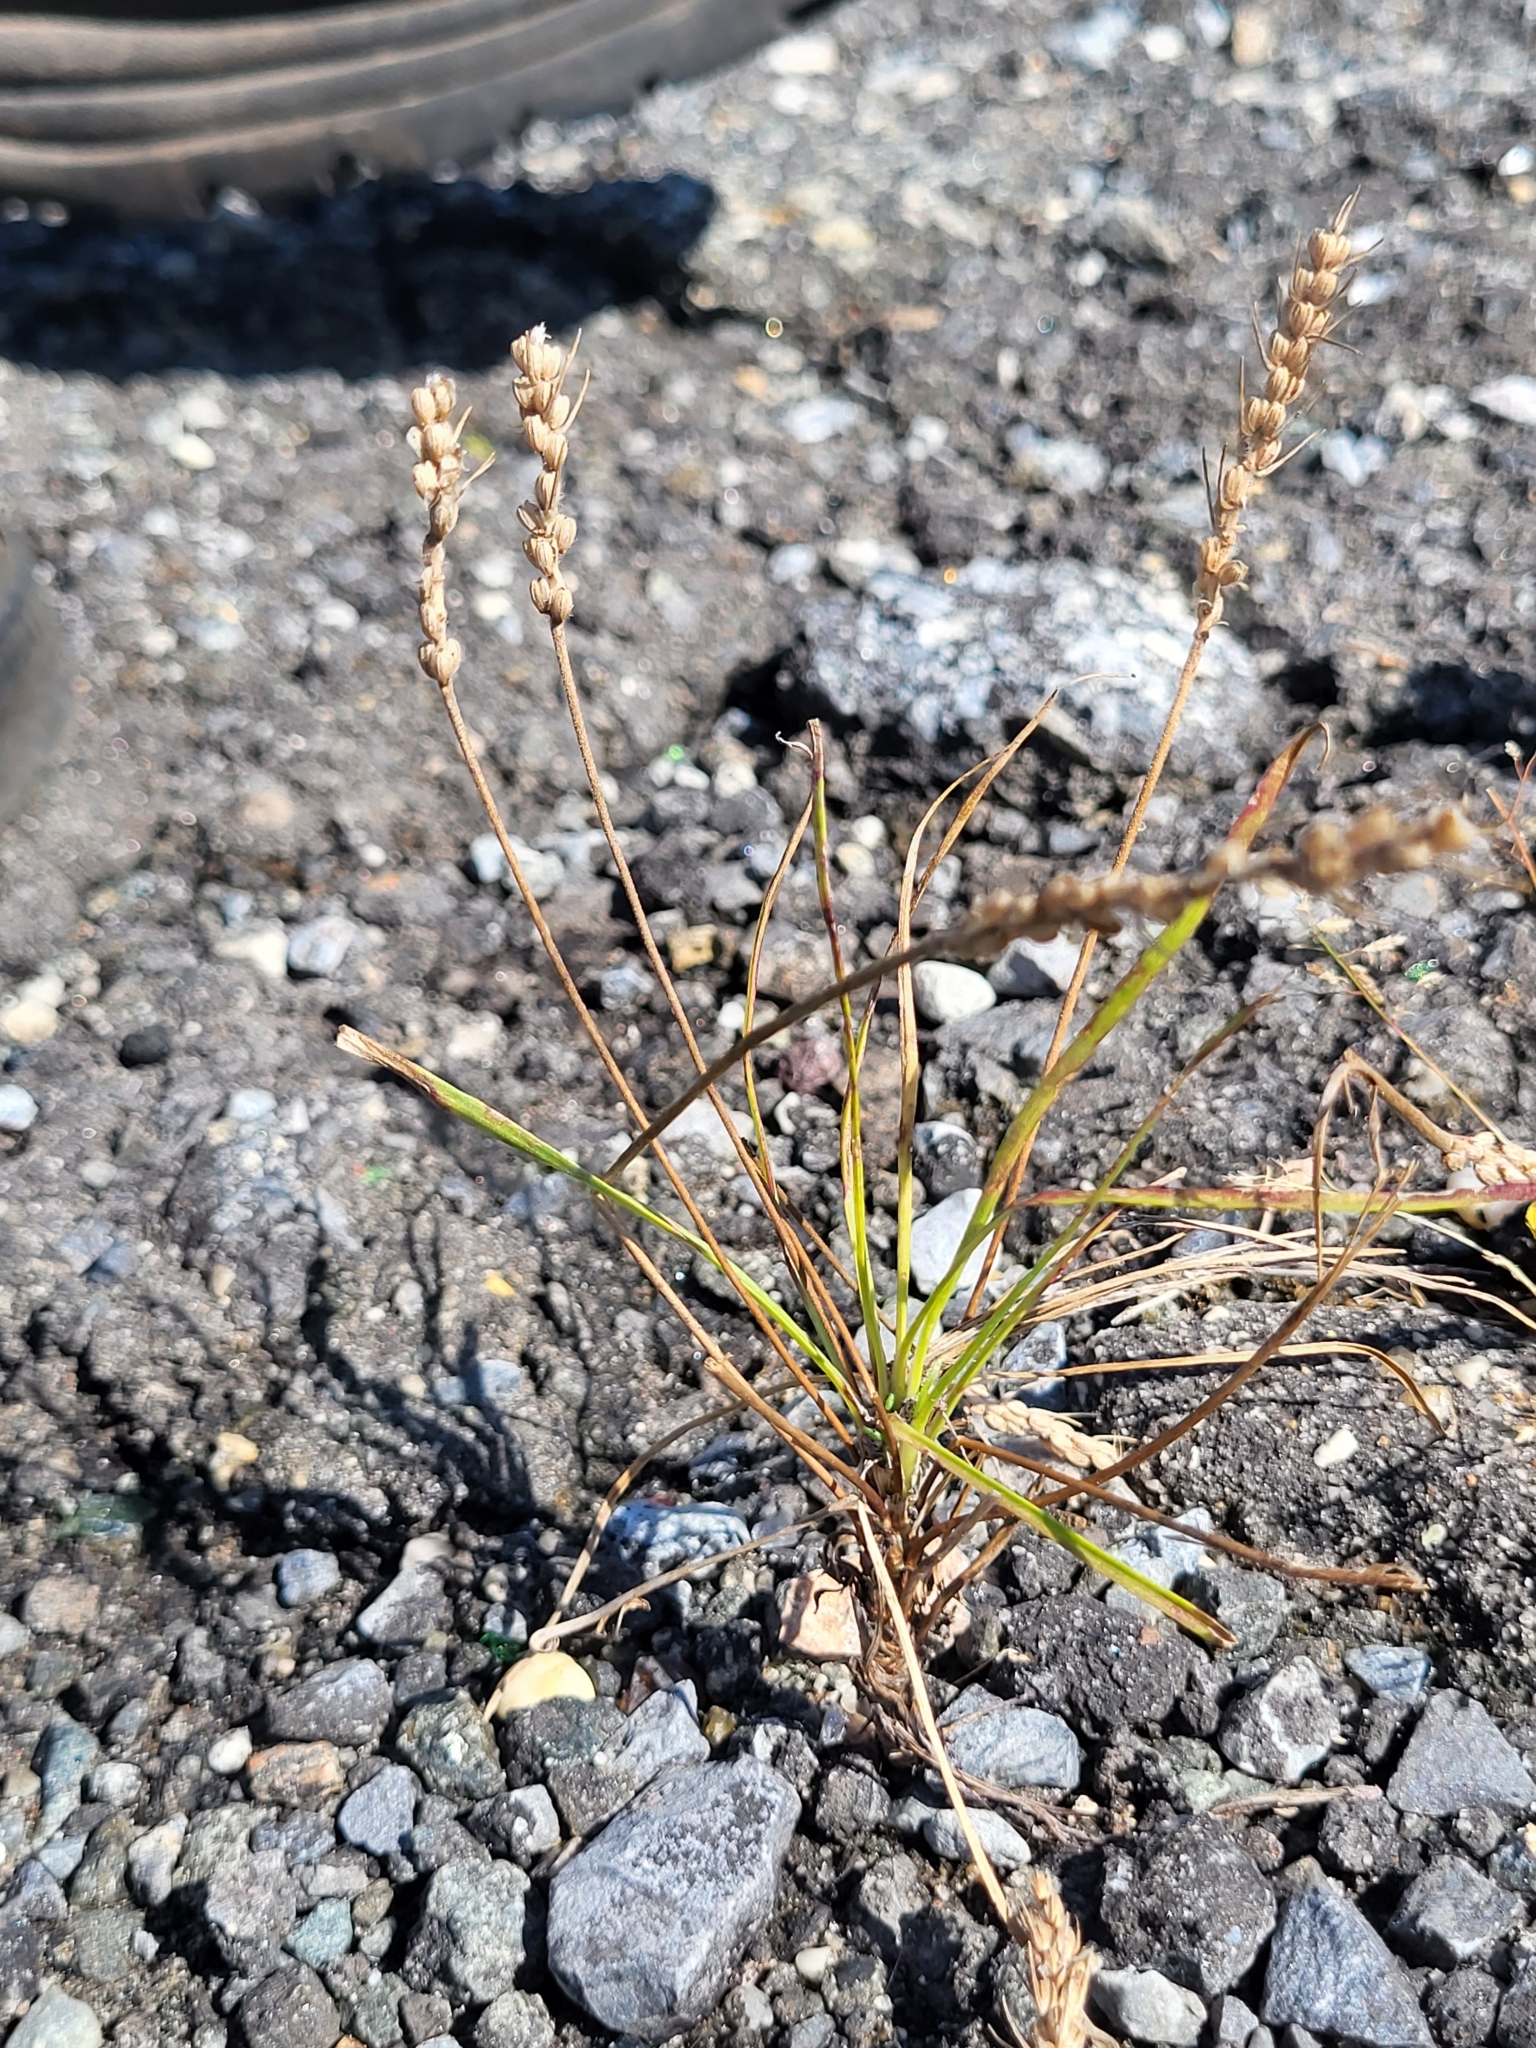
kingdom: Plantae
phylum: Tracheophyta
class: Magnoliopsida
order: Lamiales
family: Plantaginaceae
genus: Plantago
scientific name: Plantago aristata
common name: Bracted plantain
